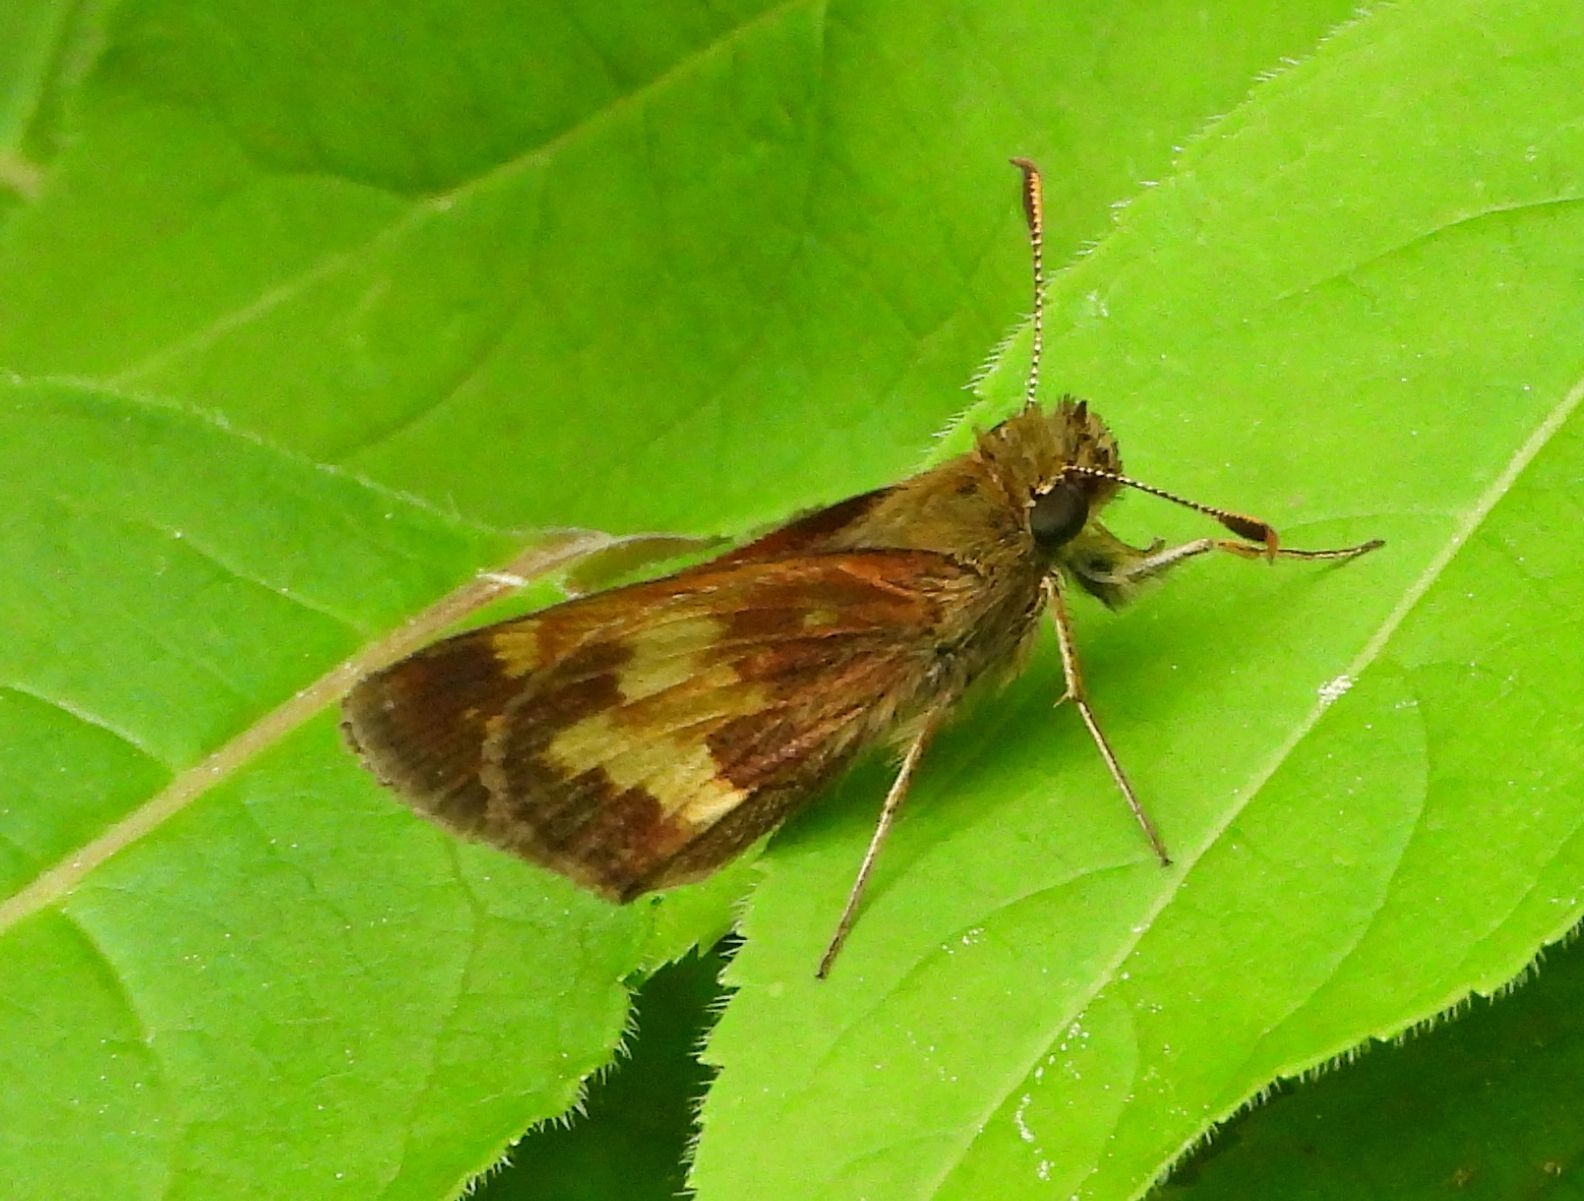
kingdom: Animalia
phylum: Arthropoda
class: Insecta
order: Lepidoptera
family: Hesperiidae
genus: Lon
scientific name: Lon hobomok
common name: Hobomok skipper
